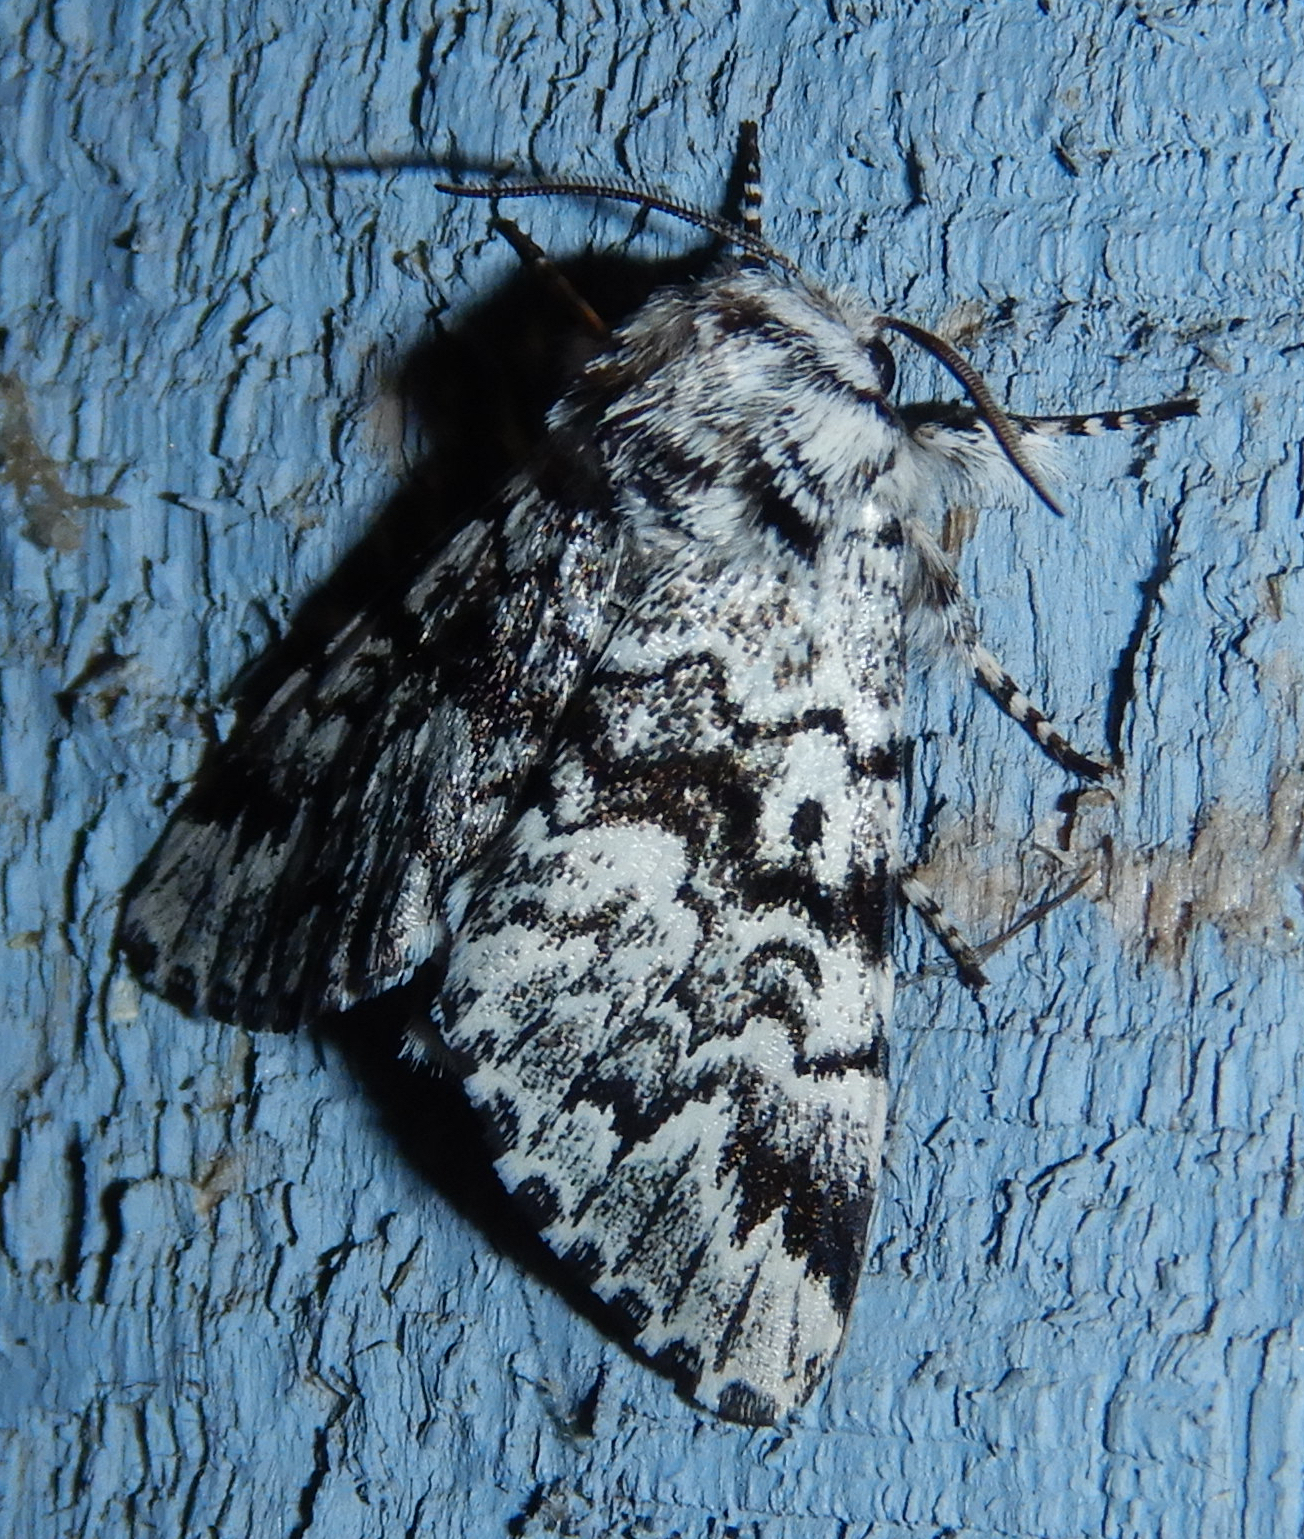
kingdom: Animalia
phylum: Arthropoda
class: Insecta
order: Lepidoptera
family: Noctuidae
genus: Panthea
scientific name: Panthea acronyctoides
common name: Black zigzag moth
